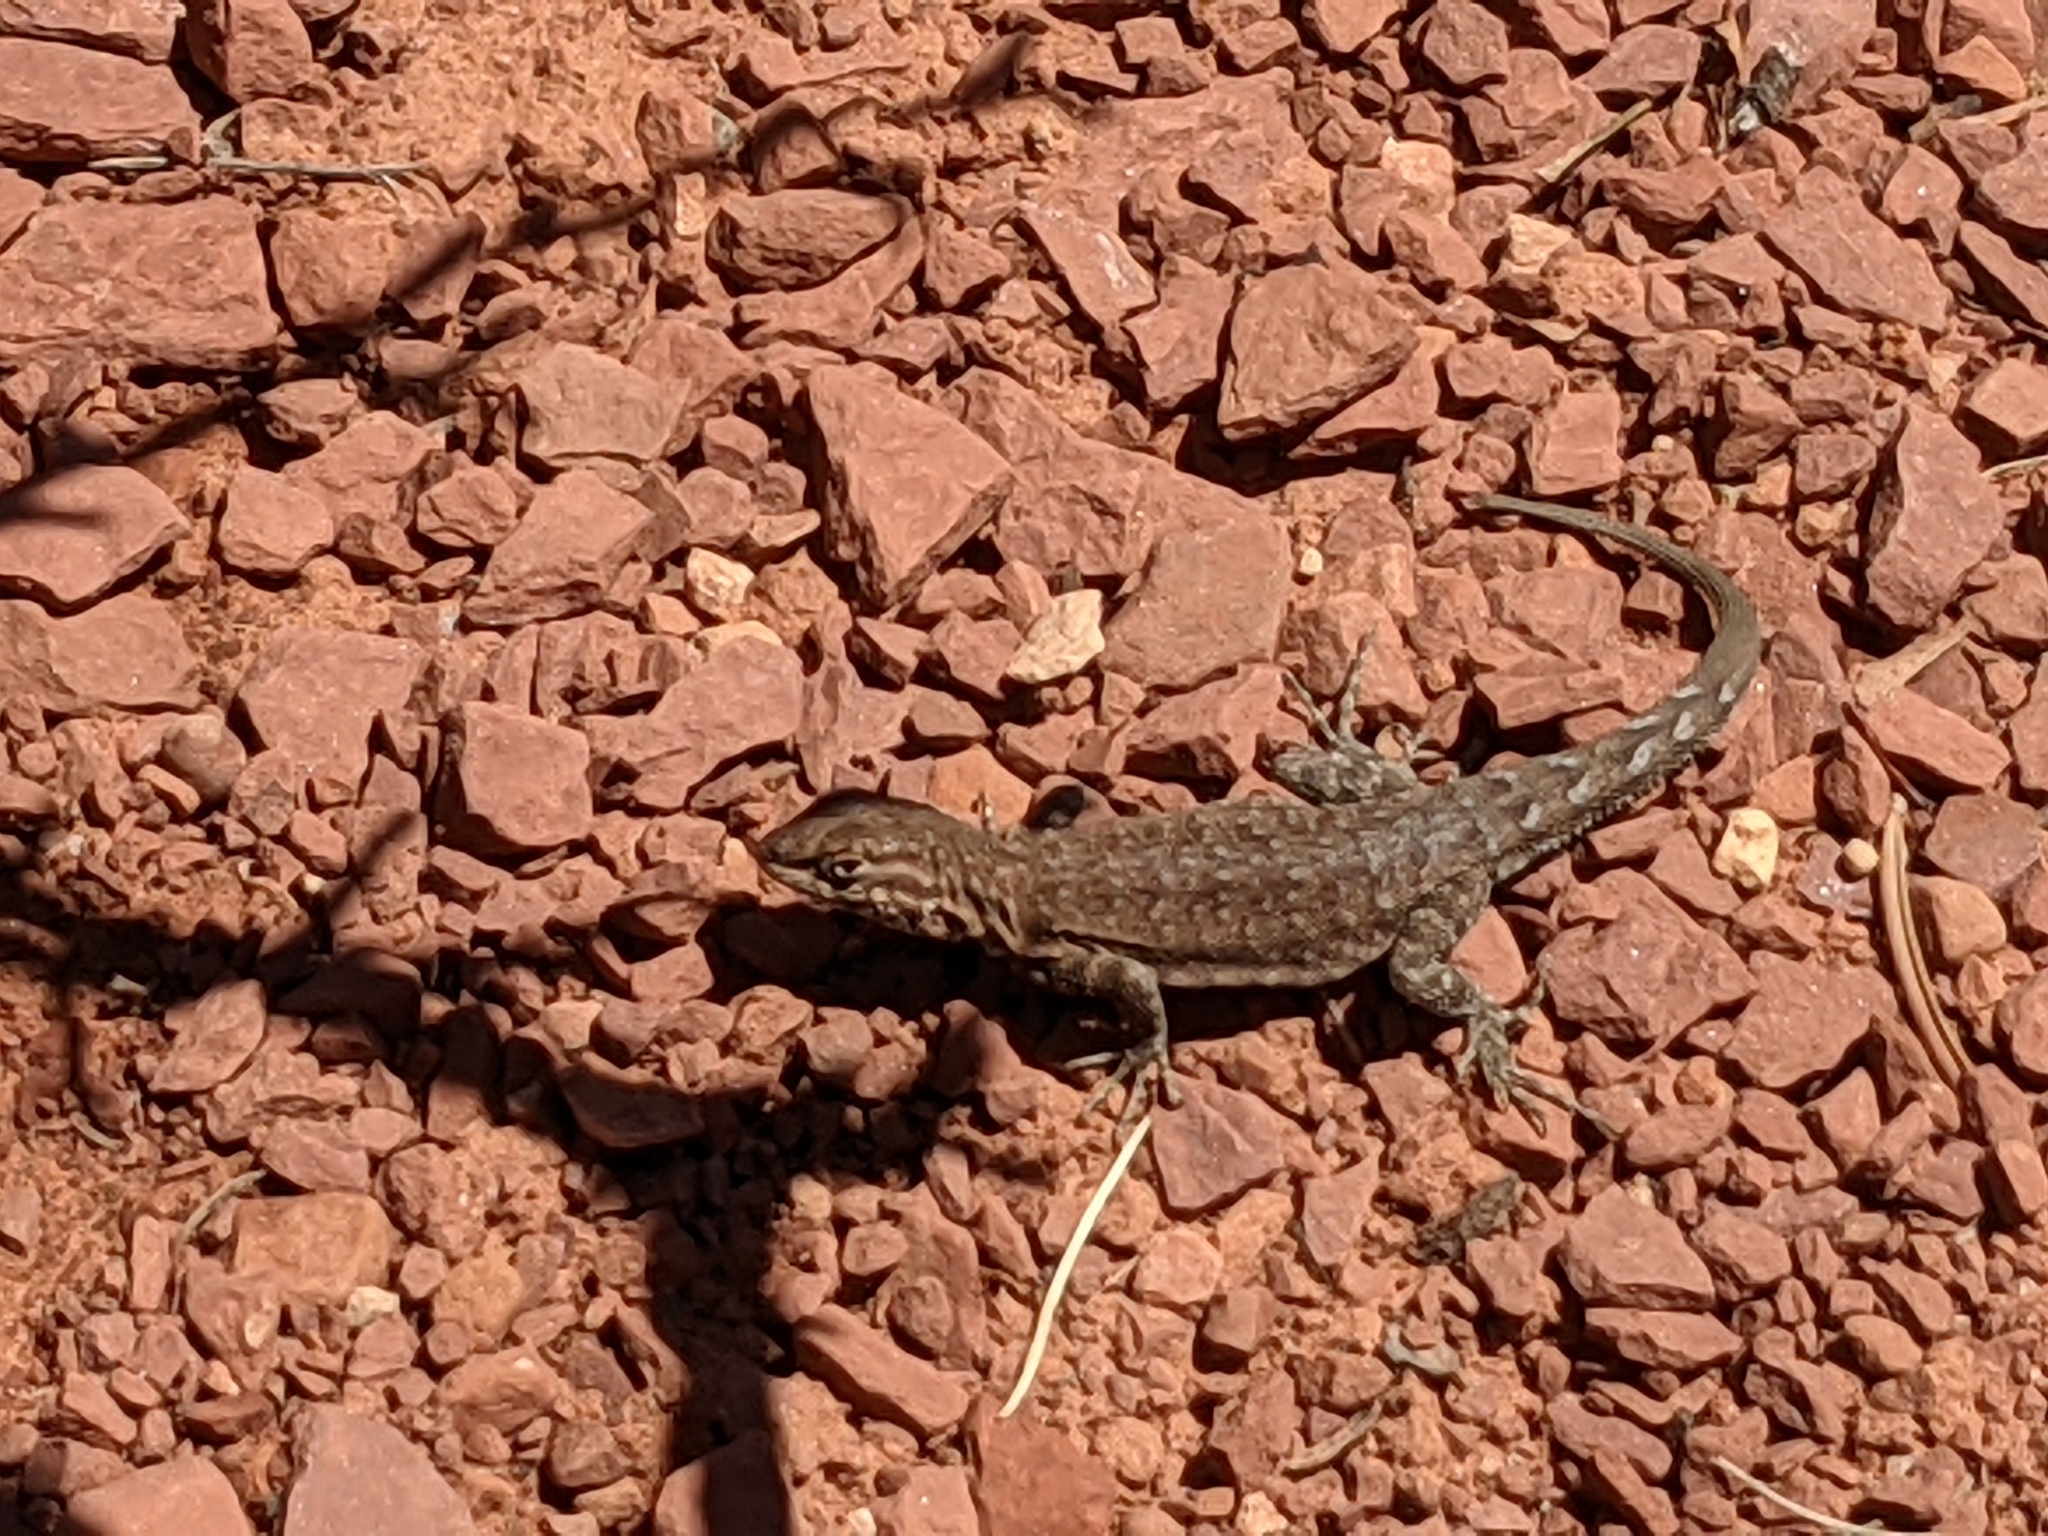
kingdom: Animalia
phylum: Chordata
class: Squamata
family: Phrynosomatidae
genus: Uta
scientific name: Uta stansburiana
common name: Side-blotched lizard
